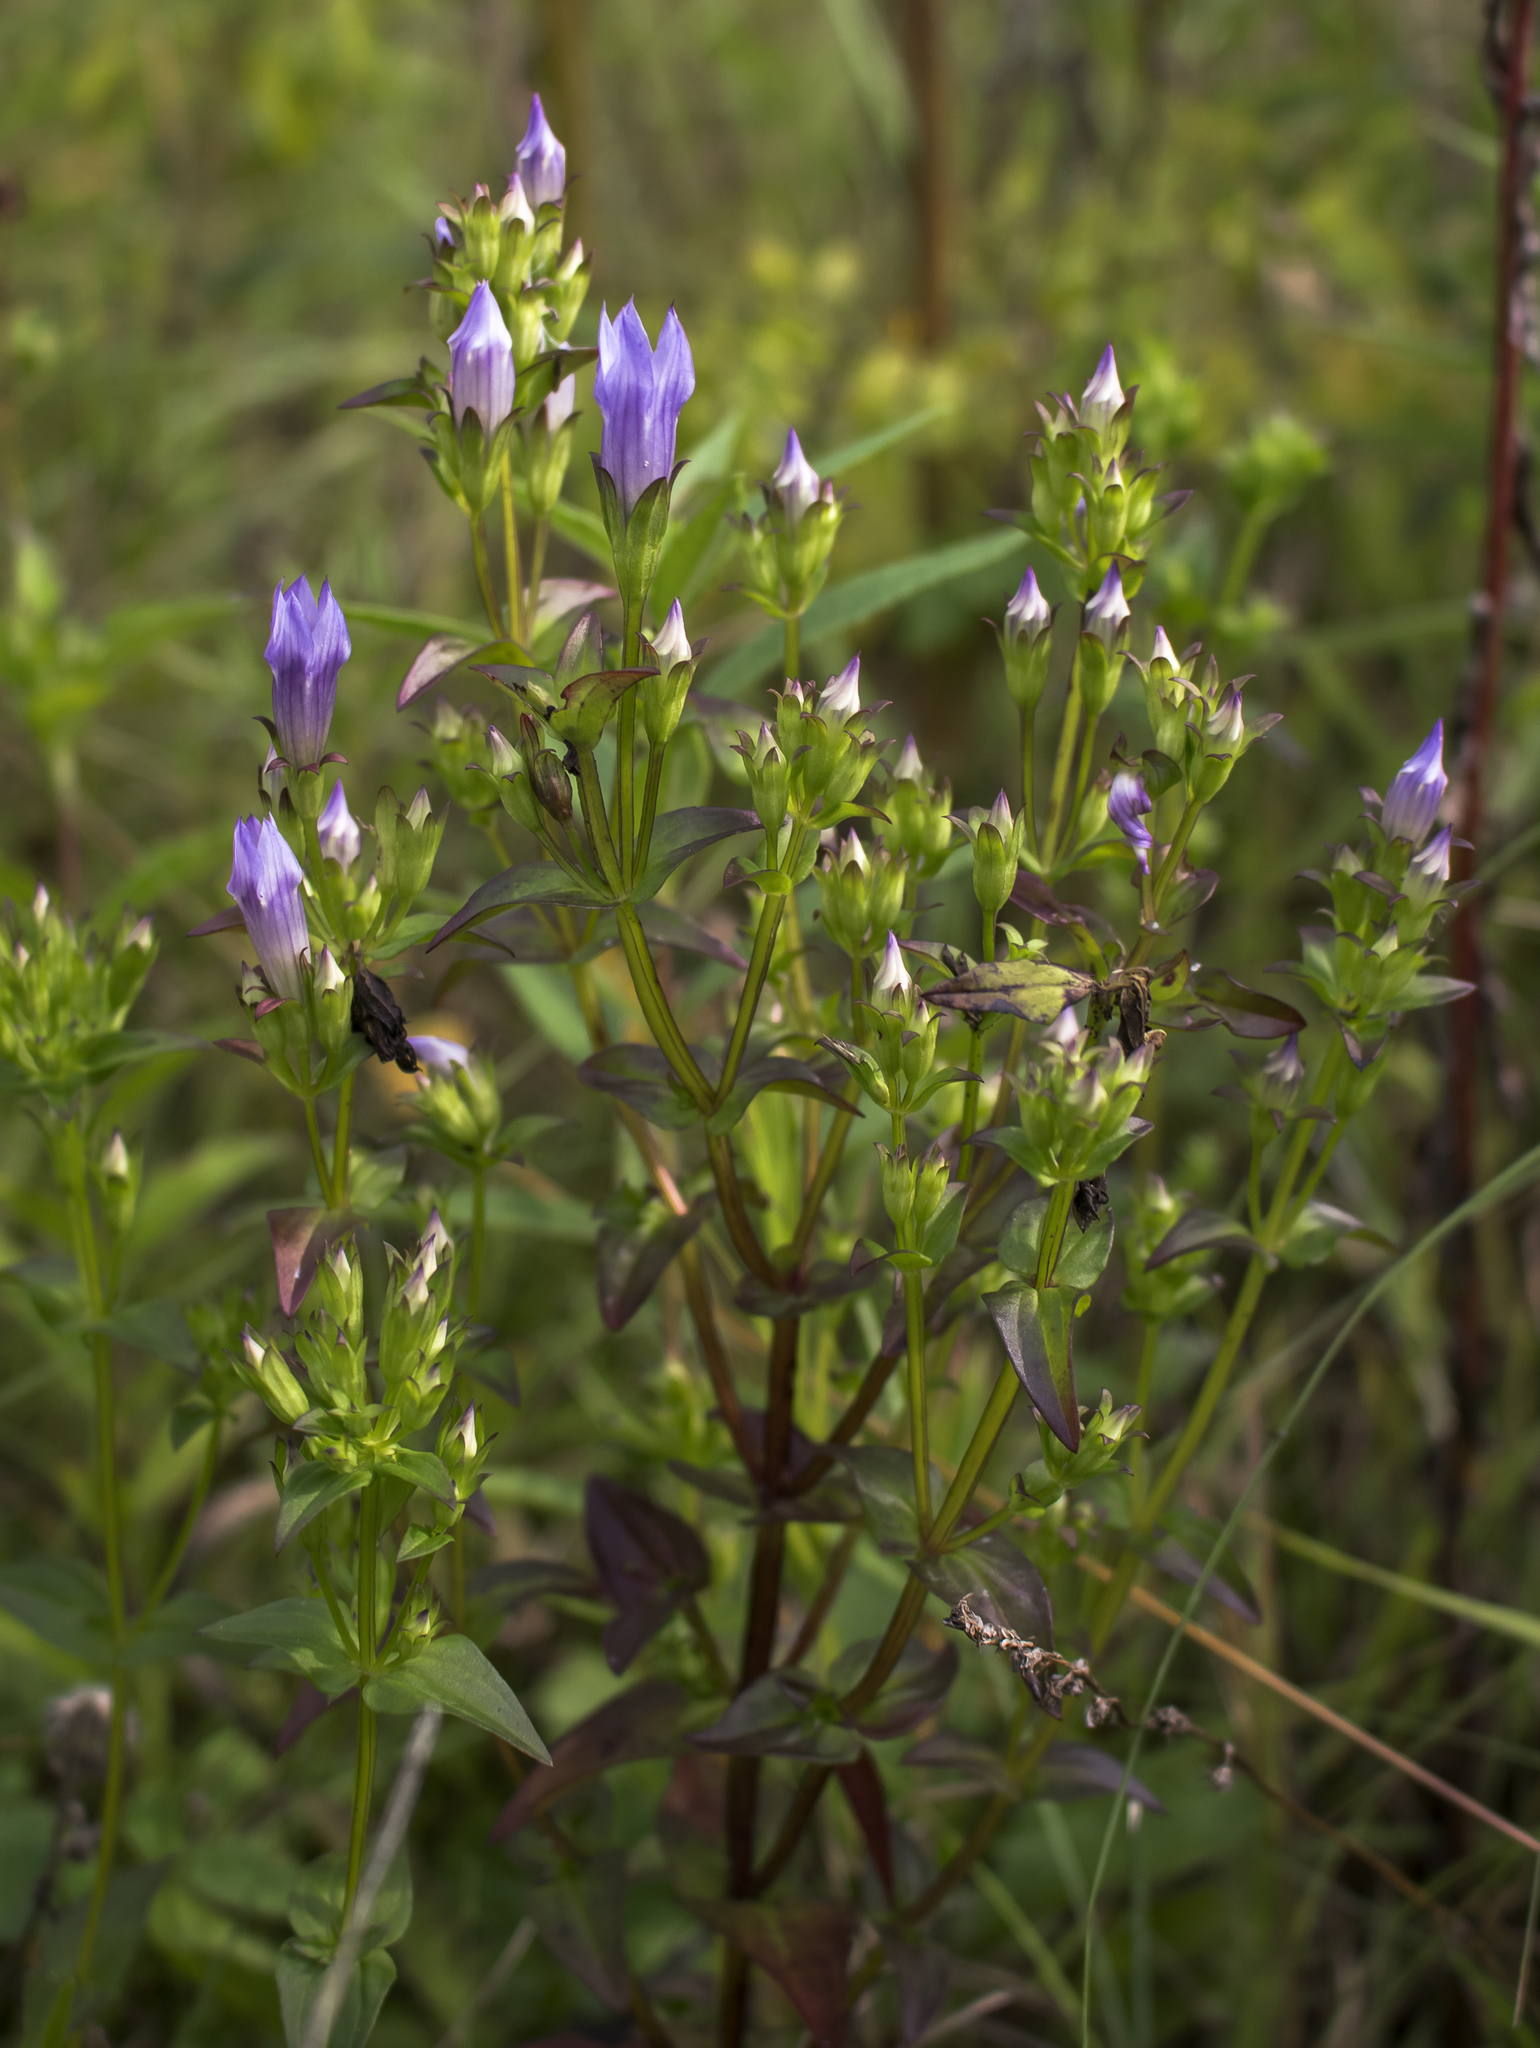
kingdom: Plantae
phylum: Tracheophyta
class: Magnoliopsida
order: Gentianales
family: Gentianaceae
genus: Gentianella
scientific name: Gentianella quinquefolia
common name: Agueweed
